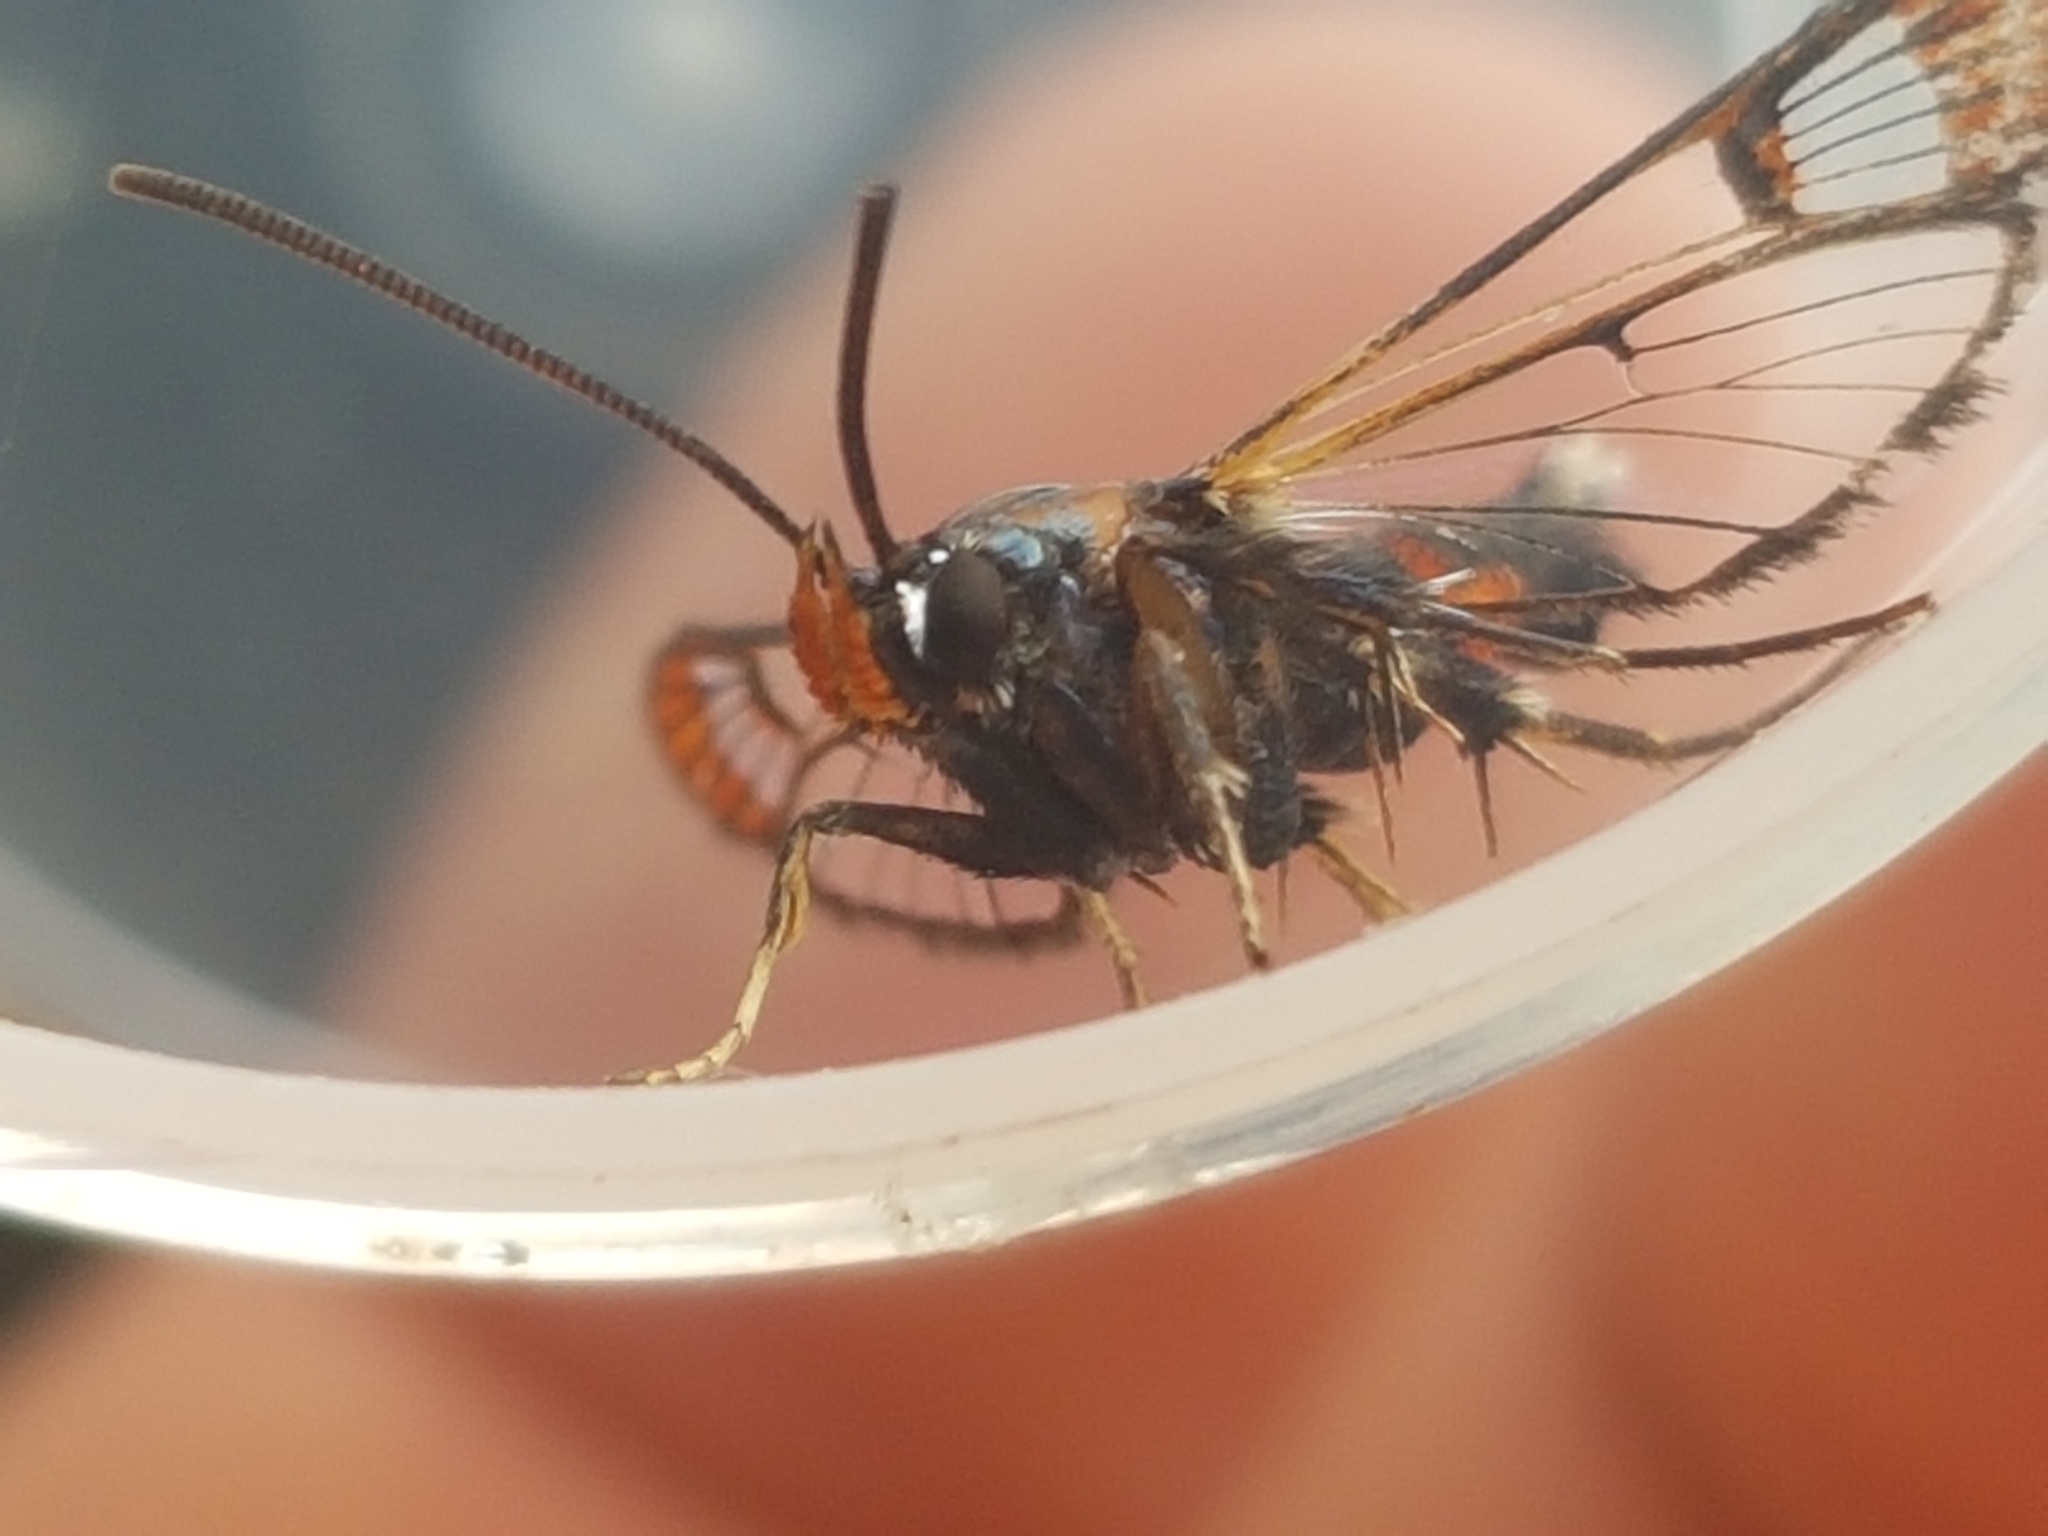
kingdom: Animalia
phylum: Arthropoda
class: Insecta
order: Lepidoptera
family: Sesiidae
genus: Synanthedon
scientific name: Synanthedon formicaeformis
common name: Red-tipped clearwing
